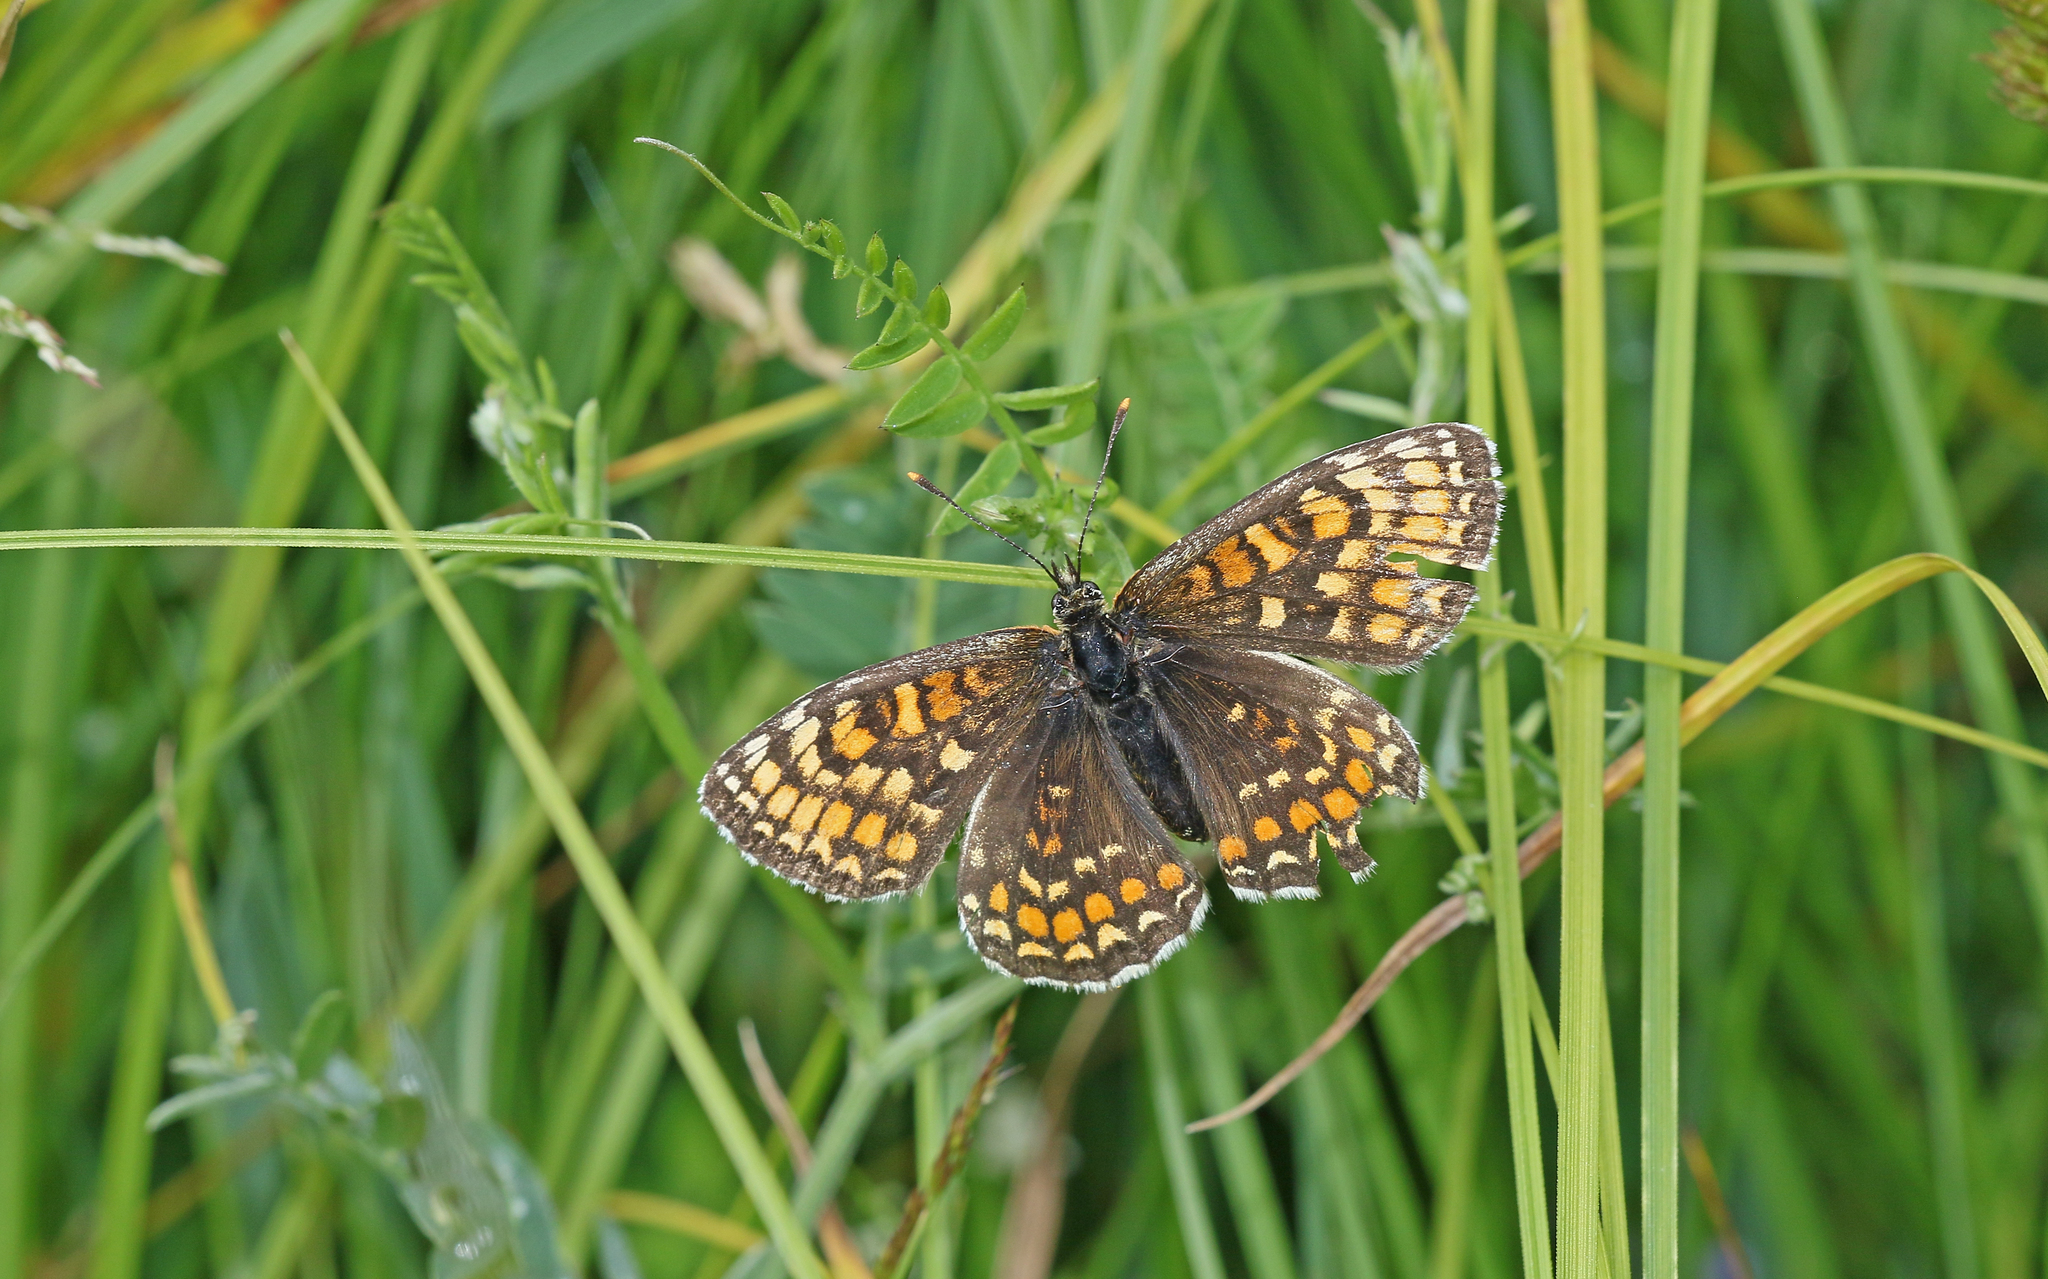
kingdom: Animalia
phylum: Arthropoda
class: Insecta
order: Lepidoptera
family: Nymphalidae
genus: Melitaea
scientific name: Melitaea athalia
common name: Heath fritillary
